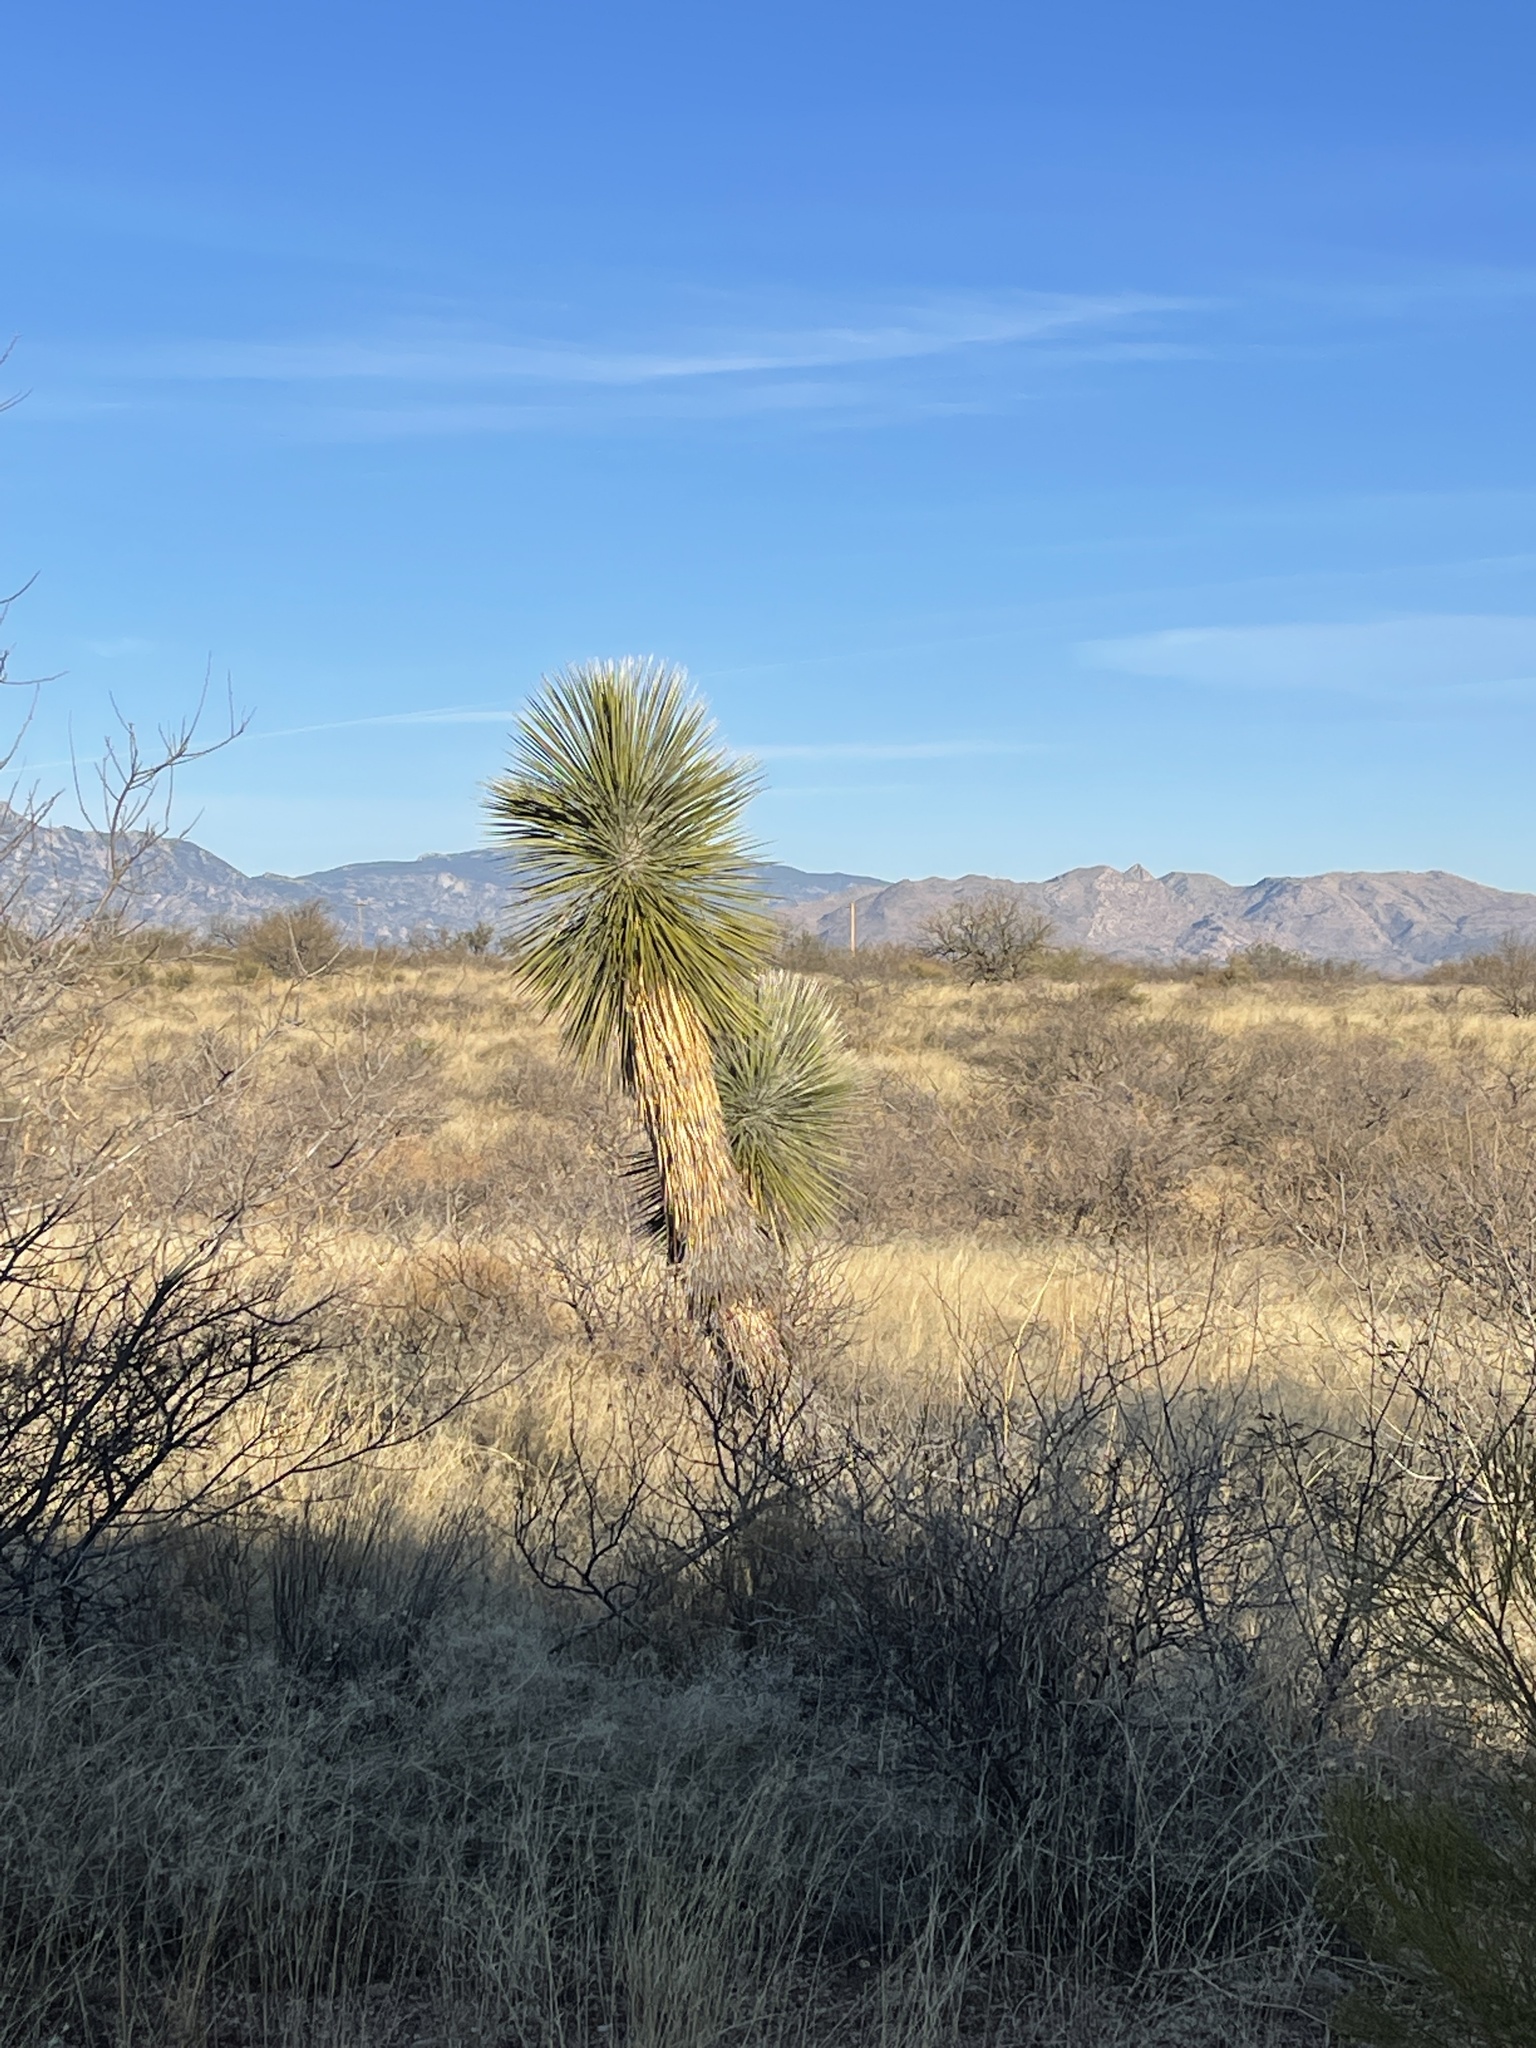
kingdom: Plantae
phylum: Tracheophyta
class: Liliopsida
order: Asparagales
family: Asparagaceae
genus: Yucca
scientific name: Yucca elata
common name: Palmella
